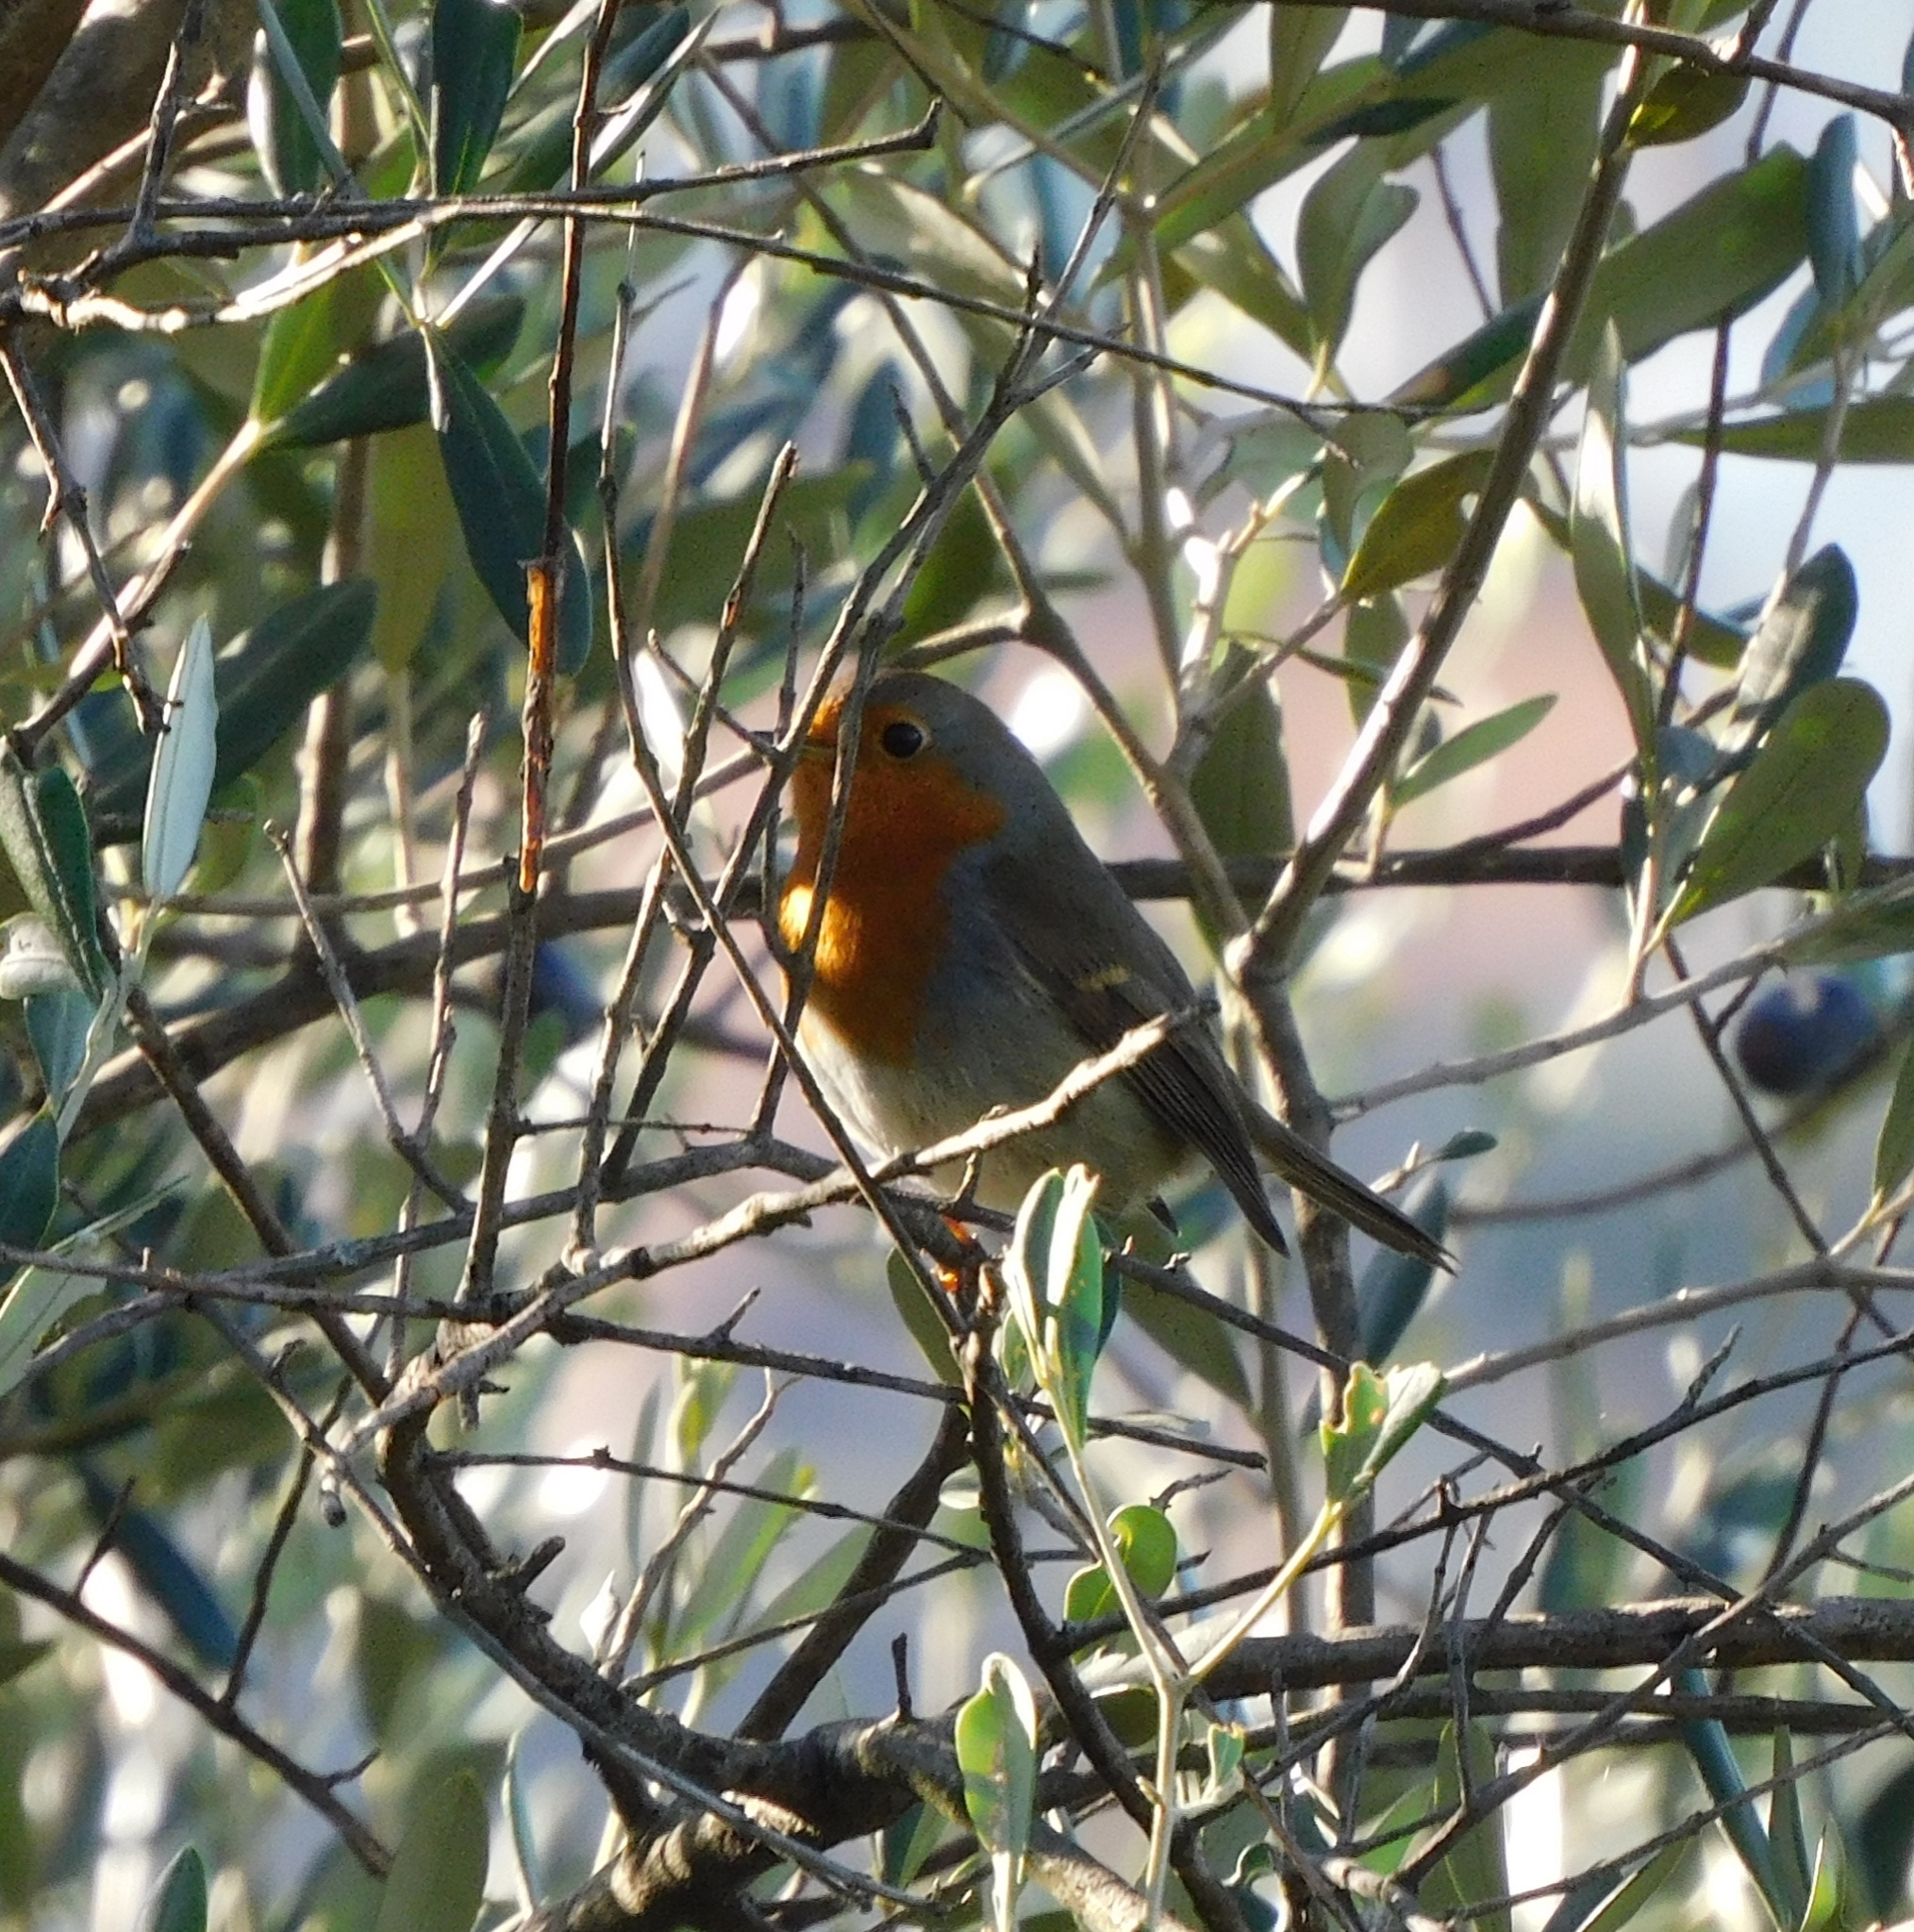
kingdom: Animalia
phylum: Chordata
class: Aves
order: Passeriformes
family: Muscicapidae
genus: Erithacus
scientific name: Erithacus rubecula
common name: European robin
